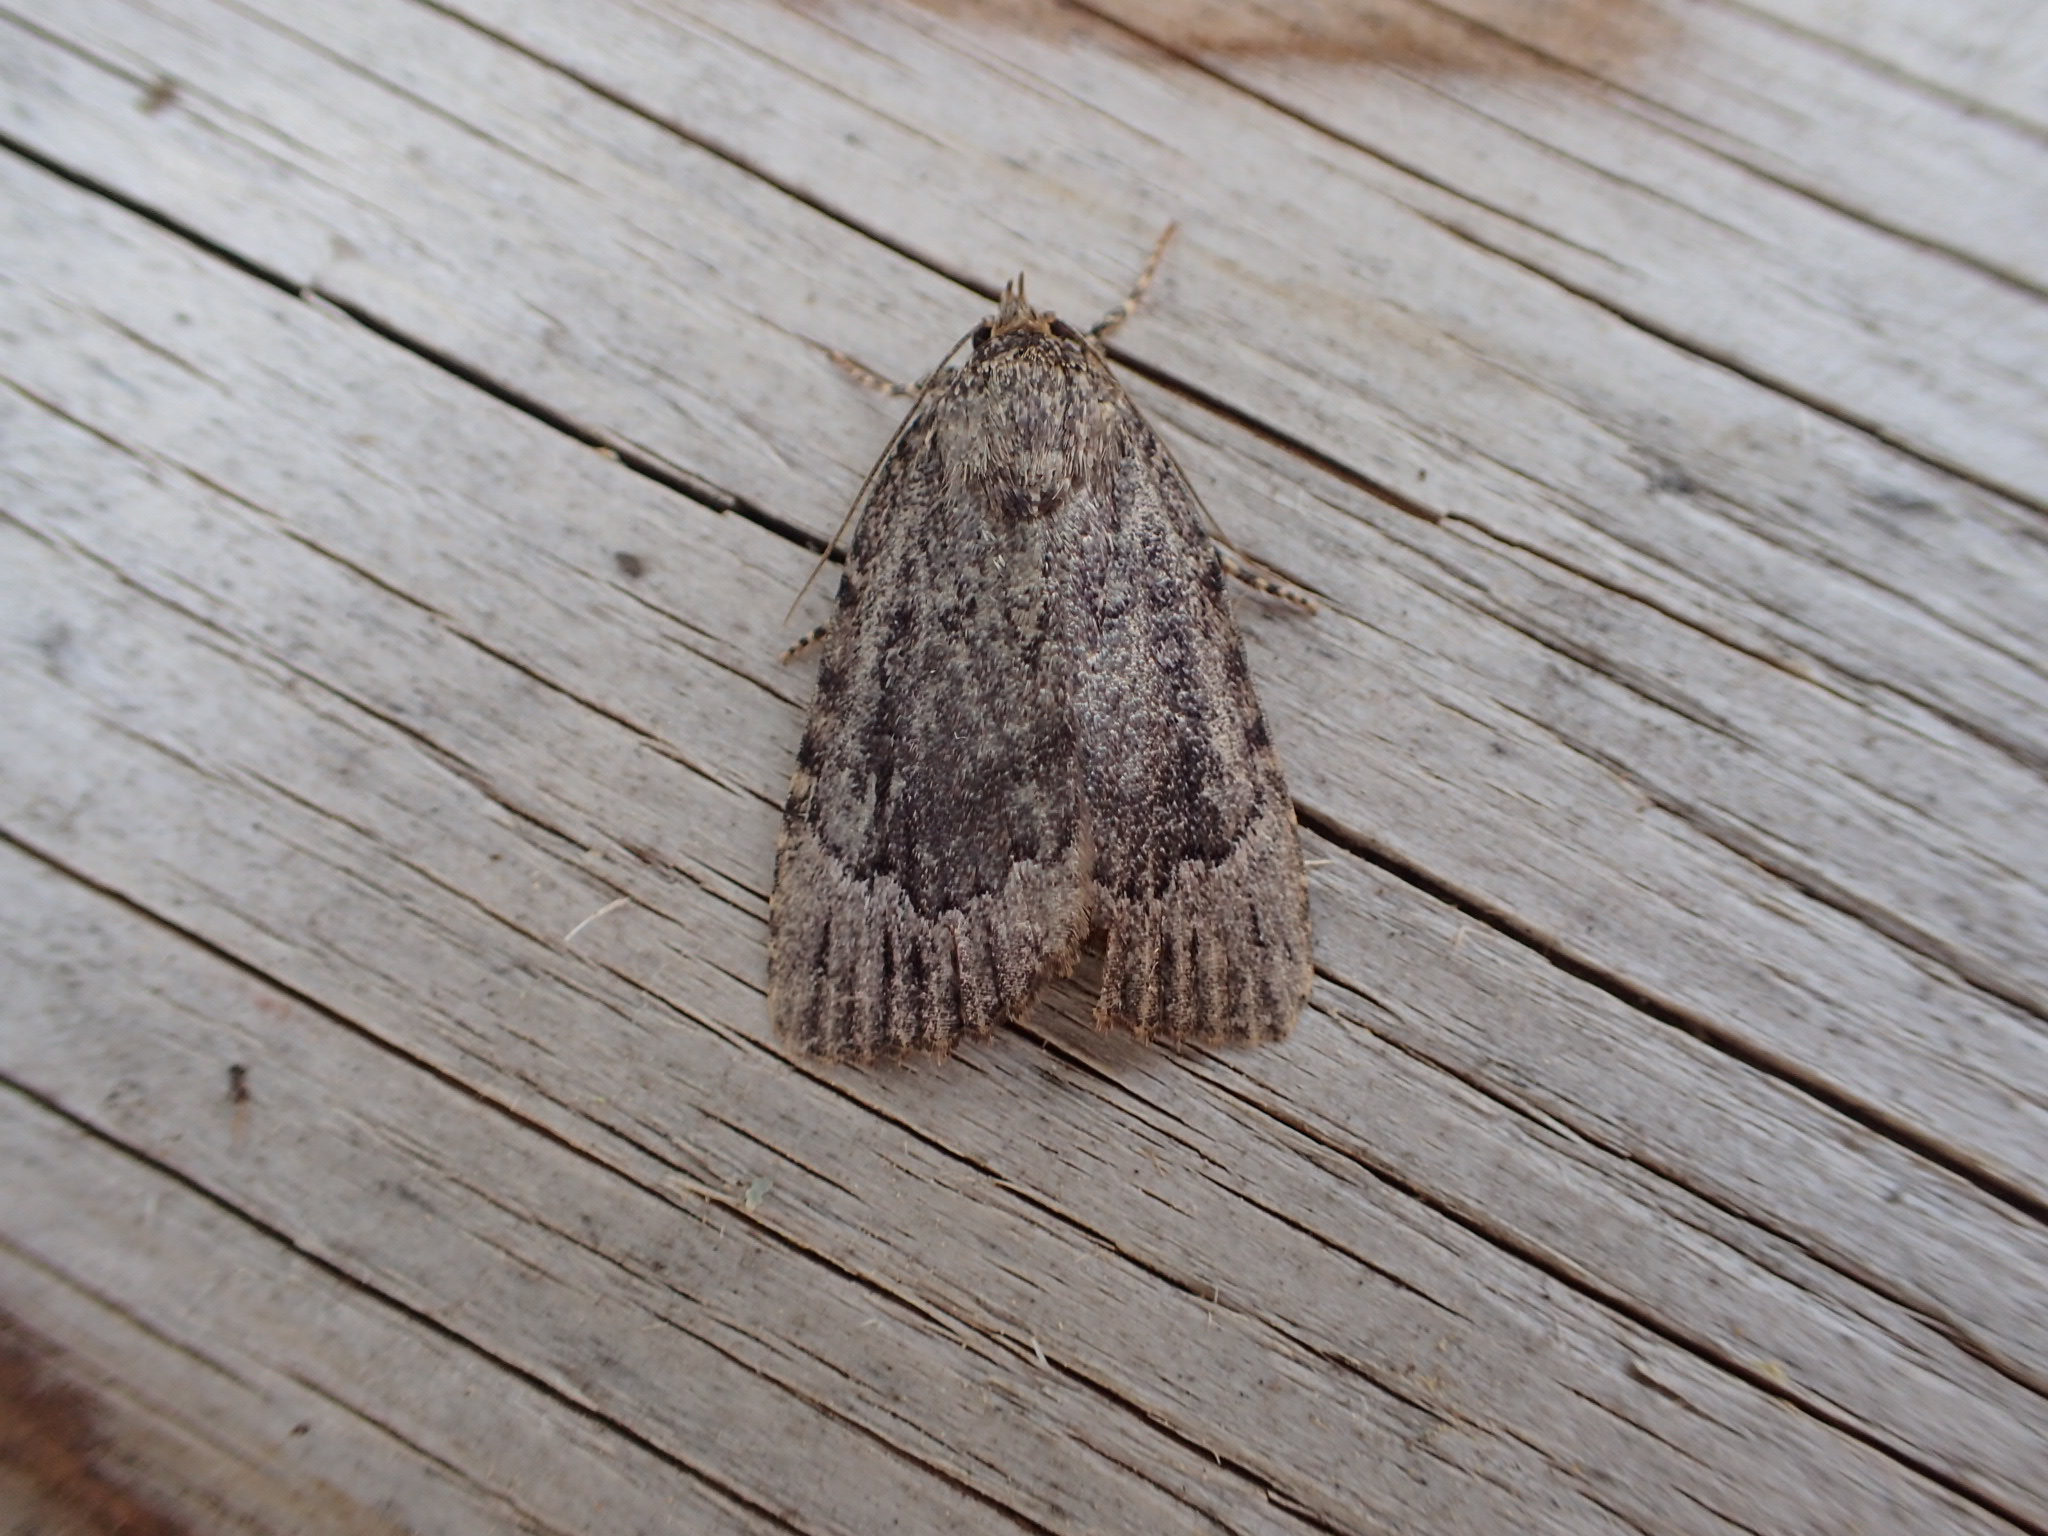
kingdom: Animalia
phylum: Arthropoda
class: Insecta
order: Lepidoptera
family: Noctuidae
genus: Amphipyra
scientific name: Amphipyra pyramidoides
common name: American copper underwing
